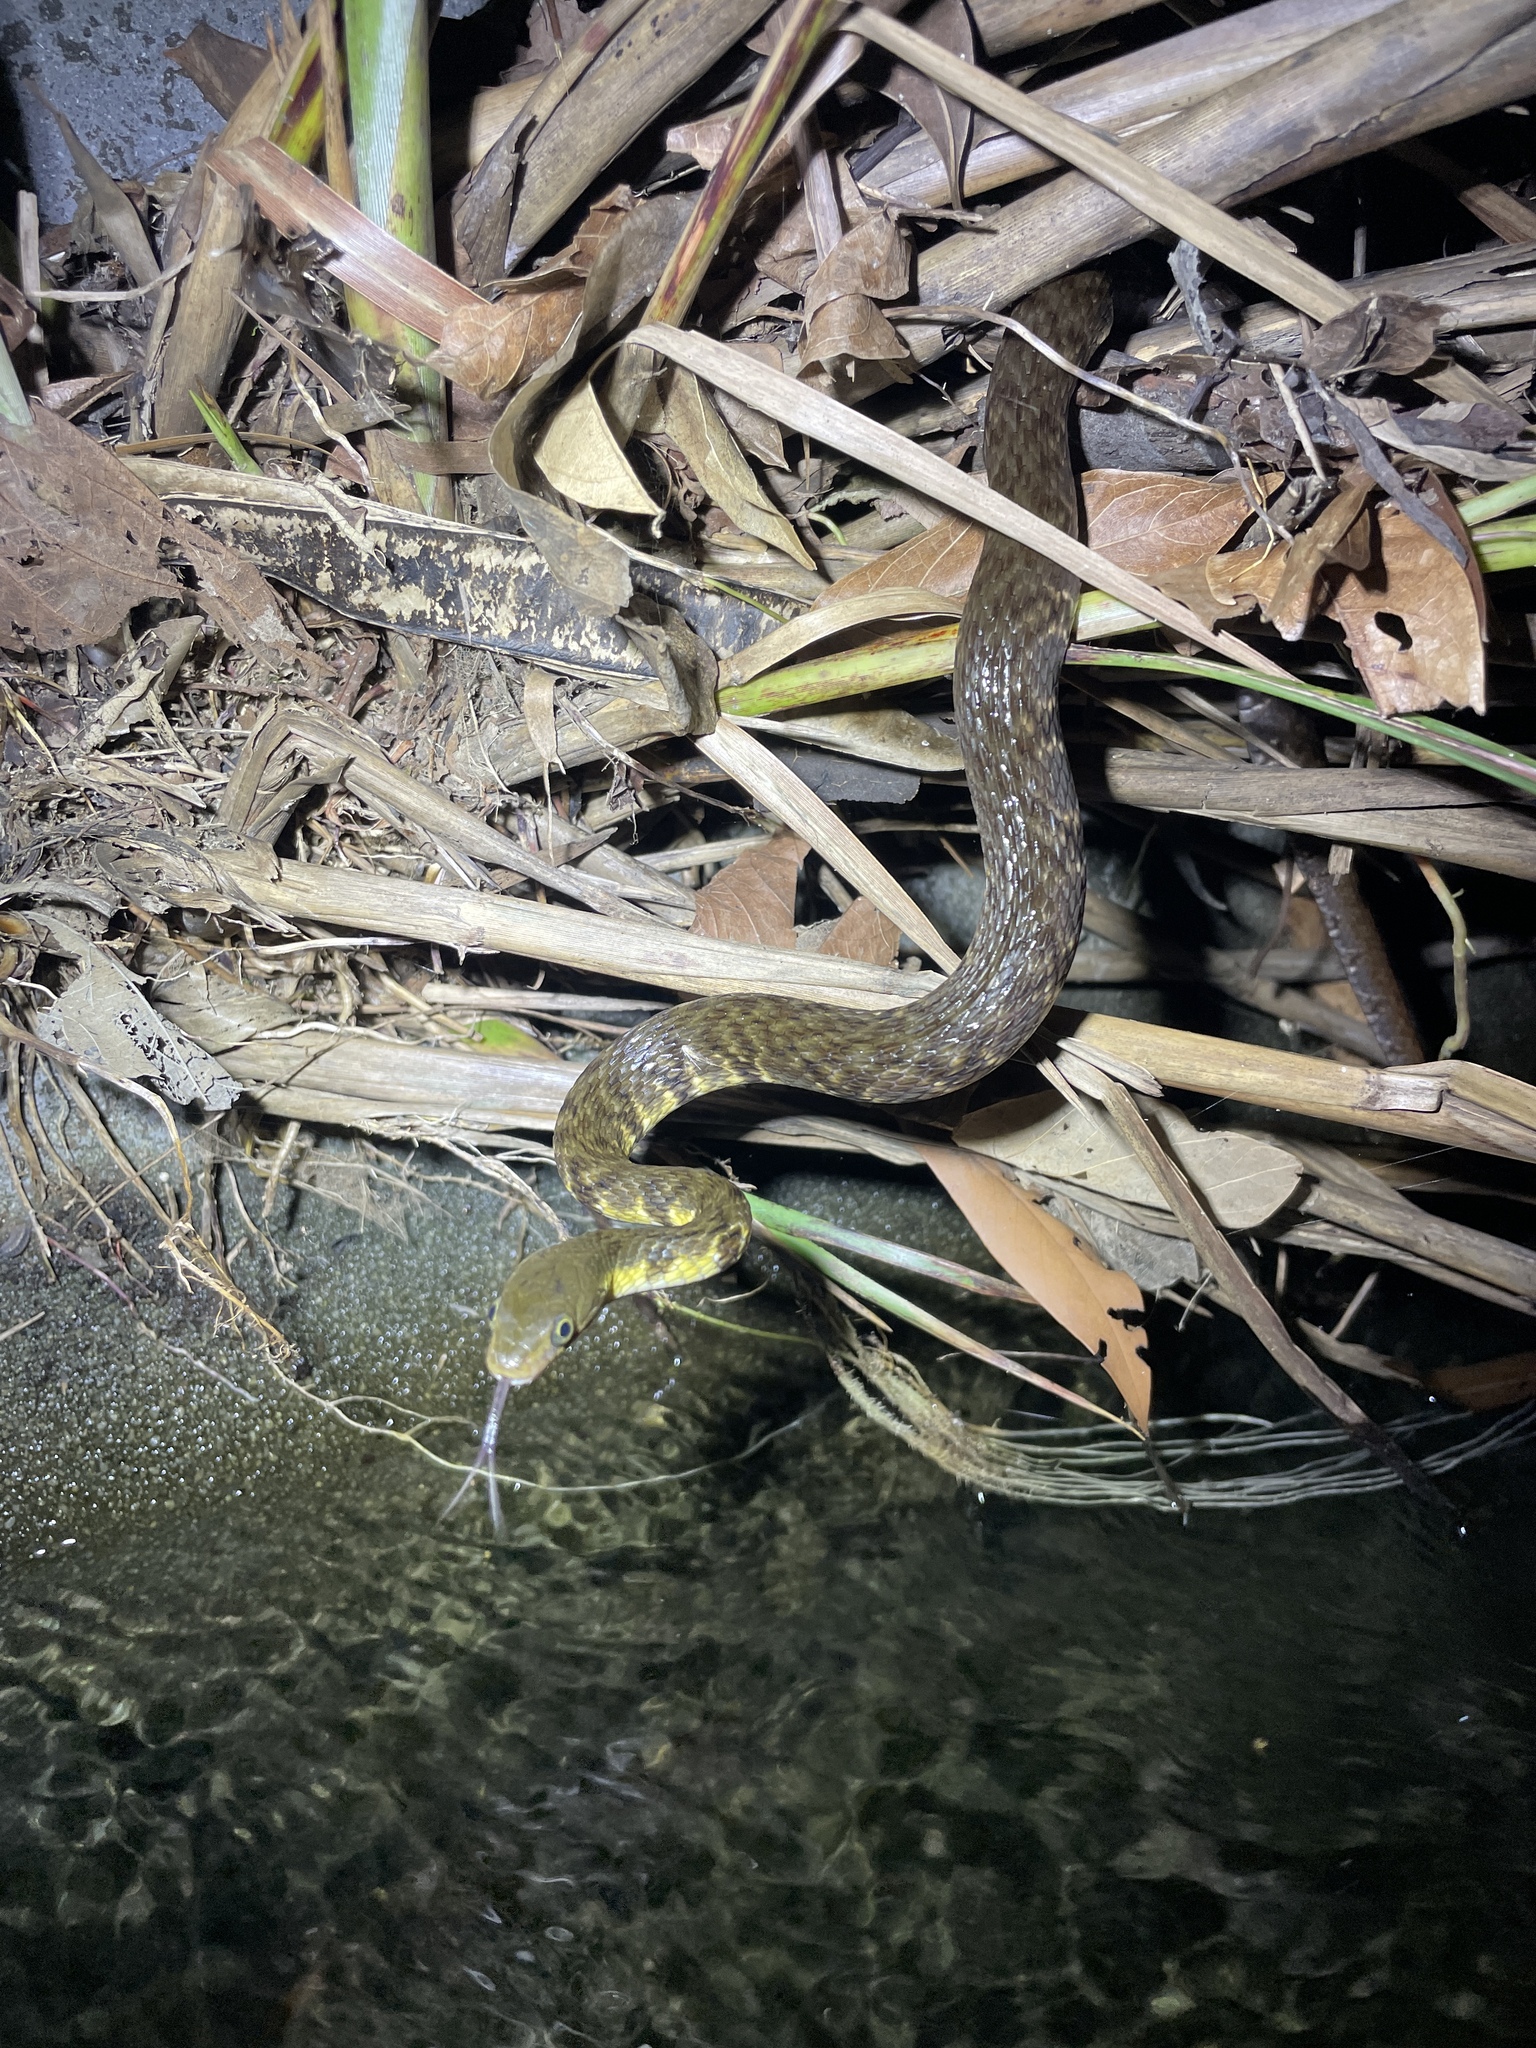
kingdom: Animalia
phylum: Chordata
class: Squamata
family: Colubridae
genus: Trimerodytes
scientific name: Trimerodytes percarinatus
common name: Eastern water snake
